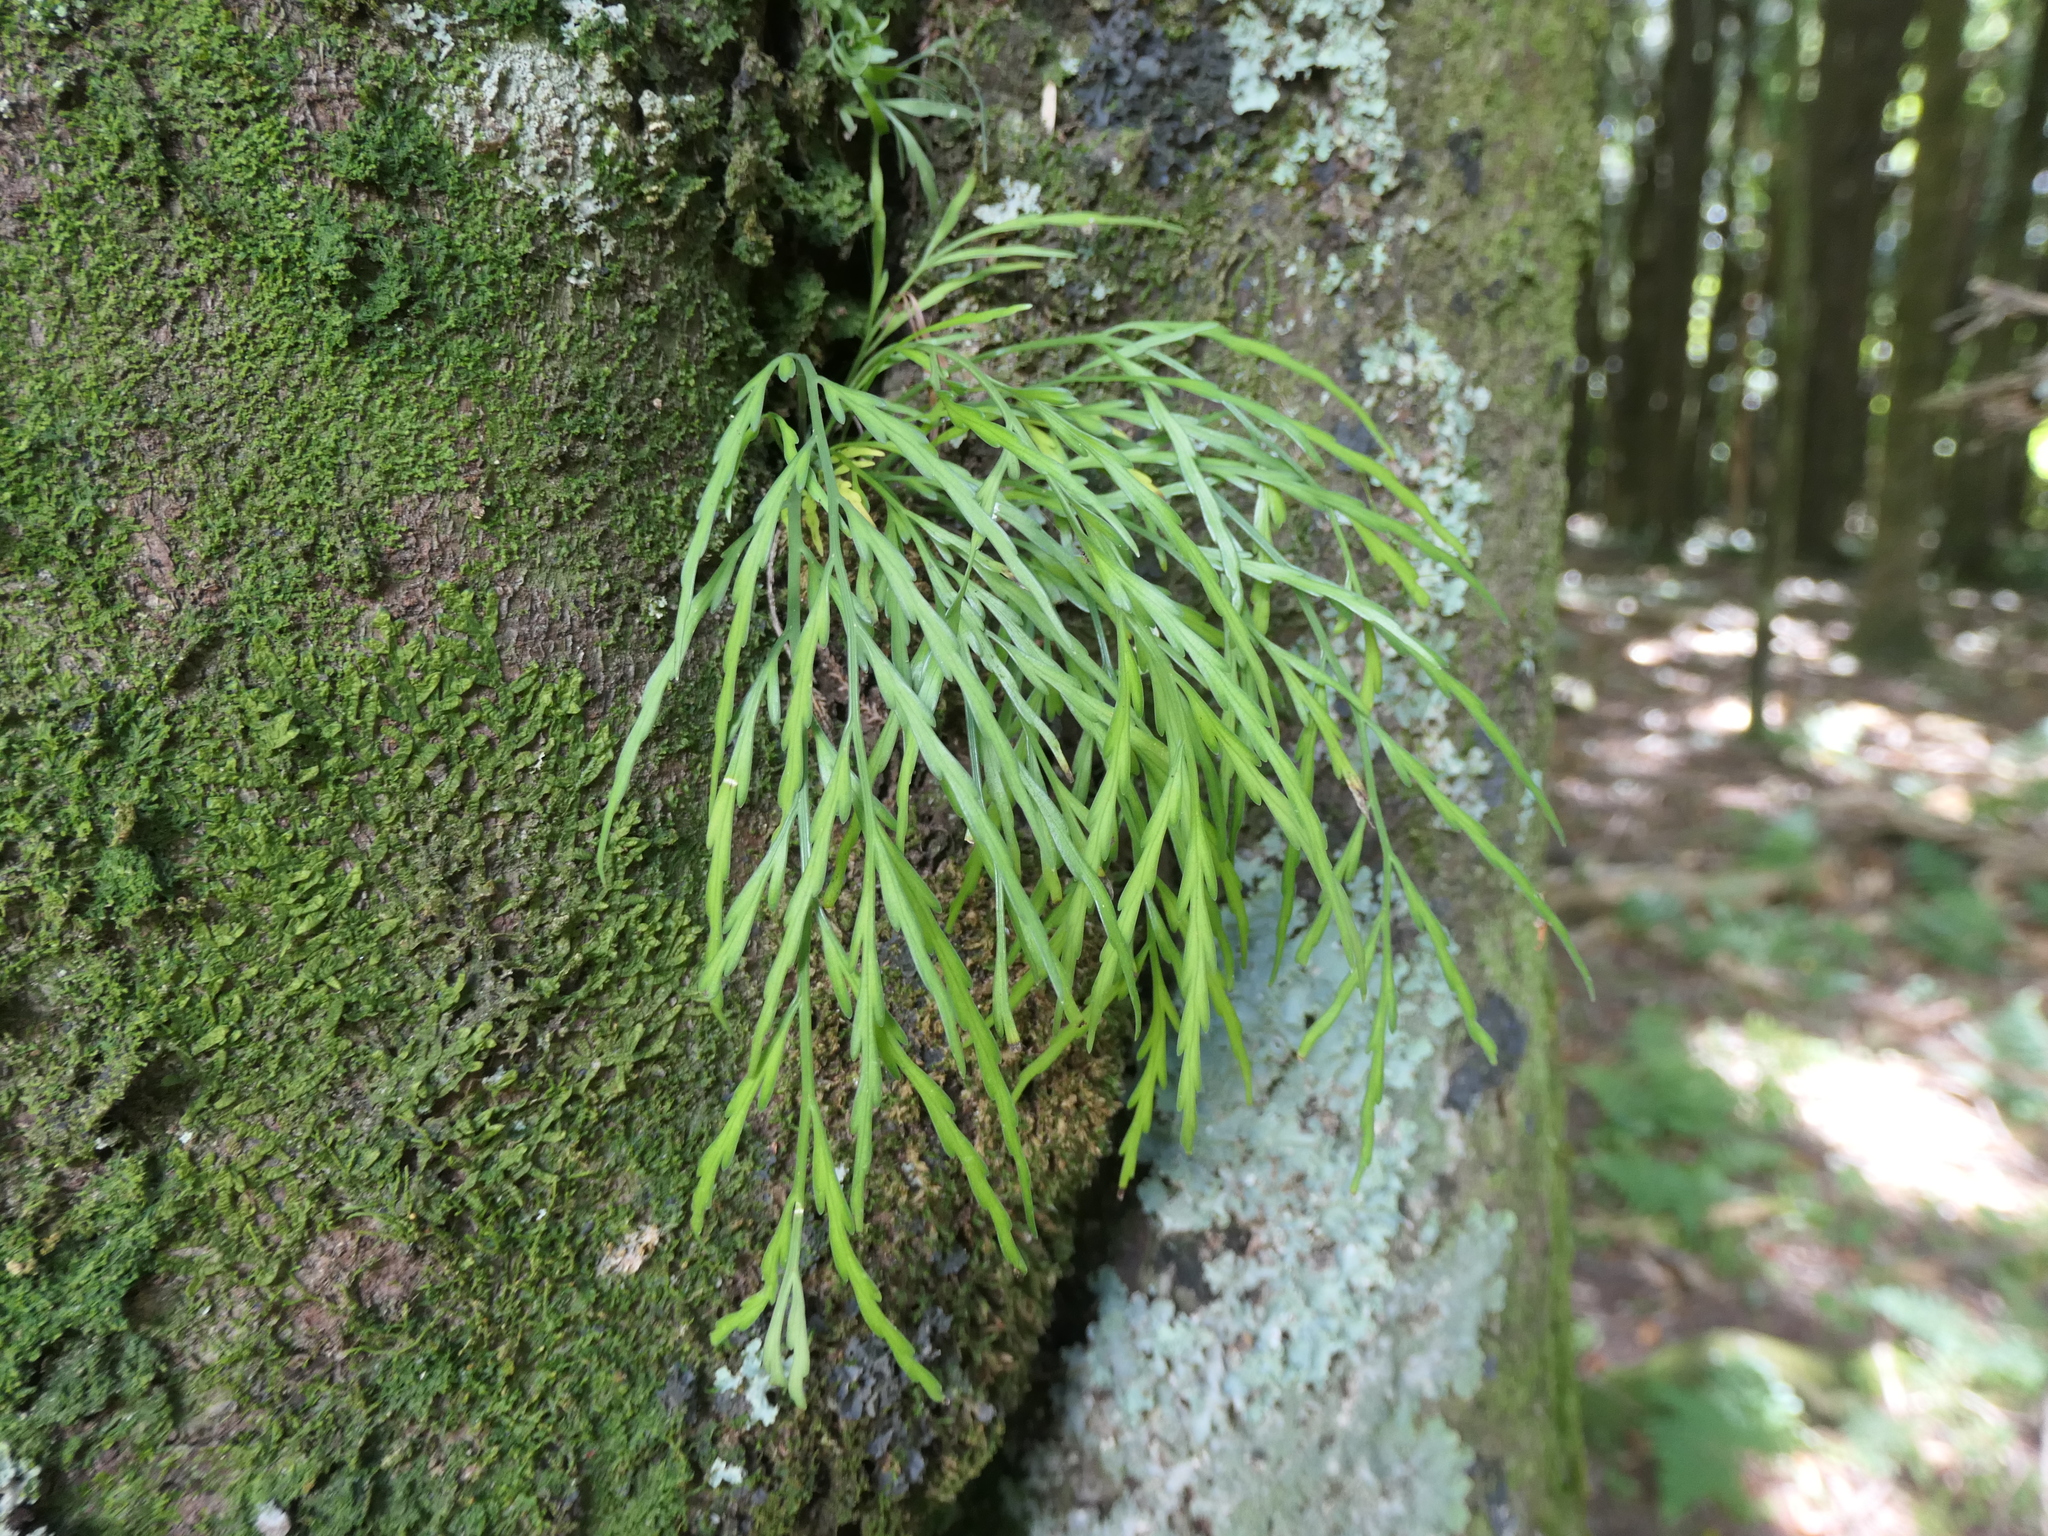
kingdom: Plantae
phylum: Tracheophyta
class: Polypodiopsida
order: Polypodiales
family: Aspleniaceae
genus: Asplenium
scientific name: Asplenium flaccidum
